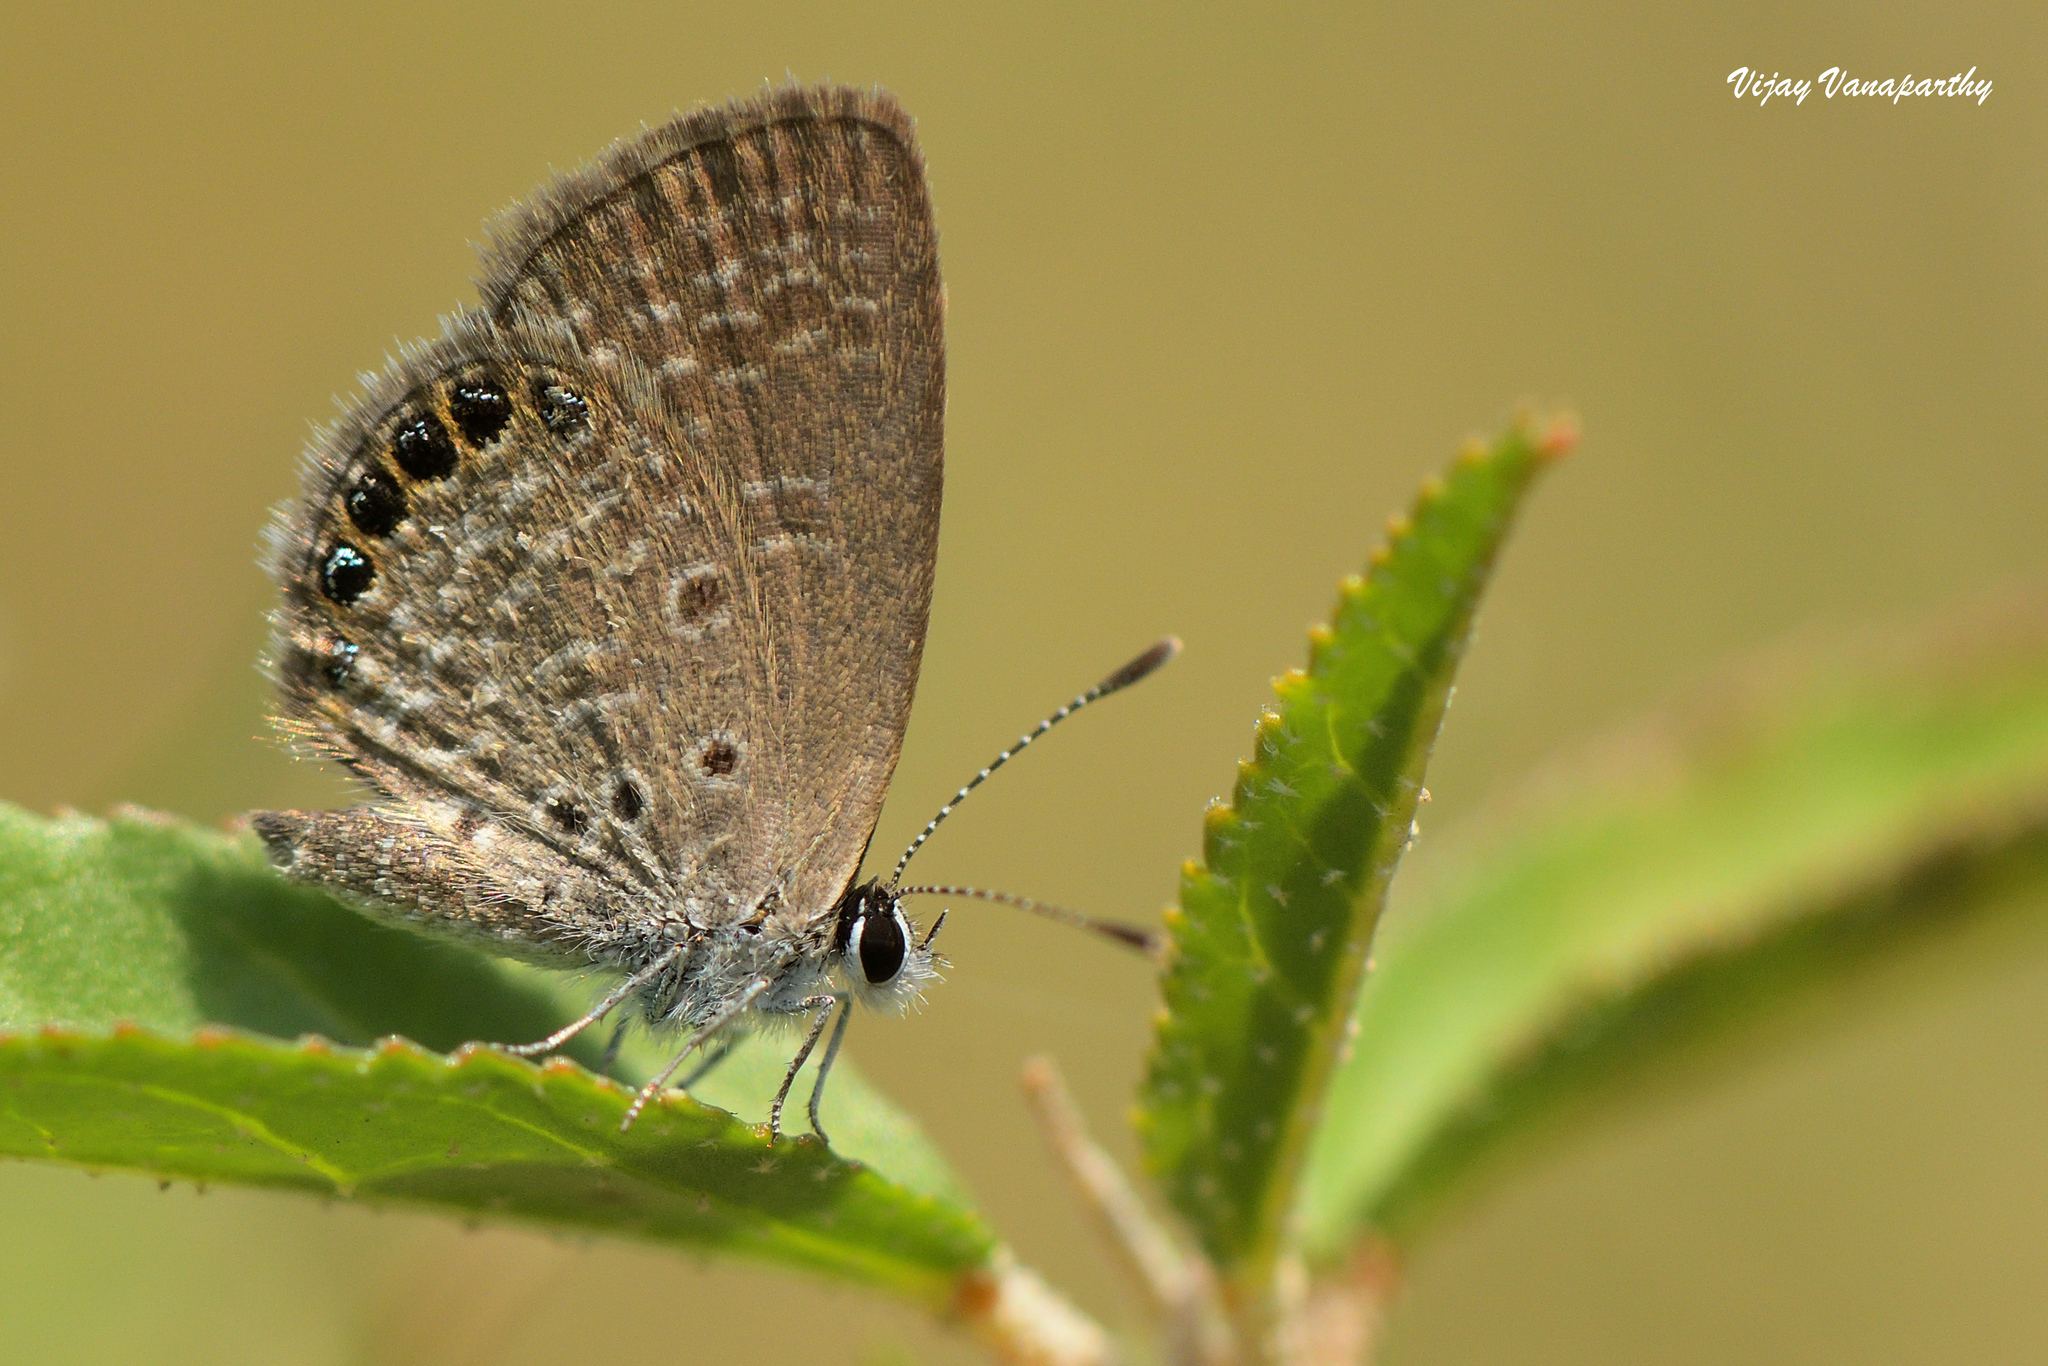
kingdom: Animalia
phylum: Arthropoda
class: Insecta
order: Lepidoptera
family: Lycaenidae
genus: Freyeria
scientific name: Freyeria putli
